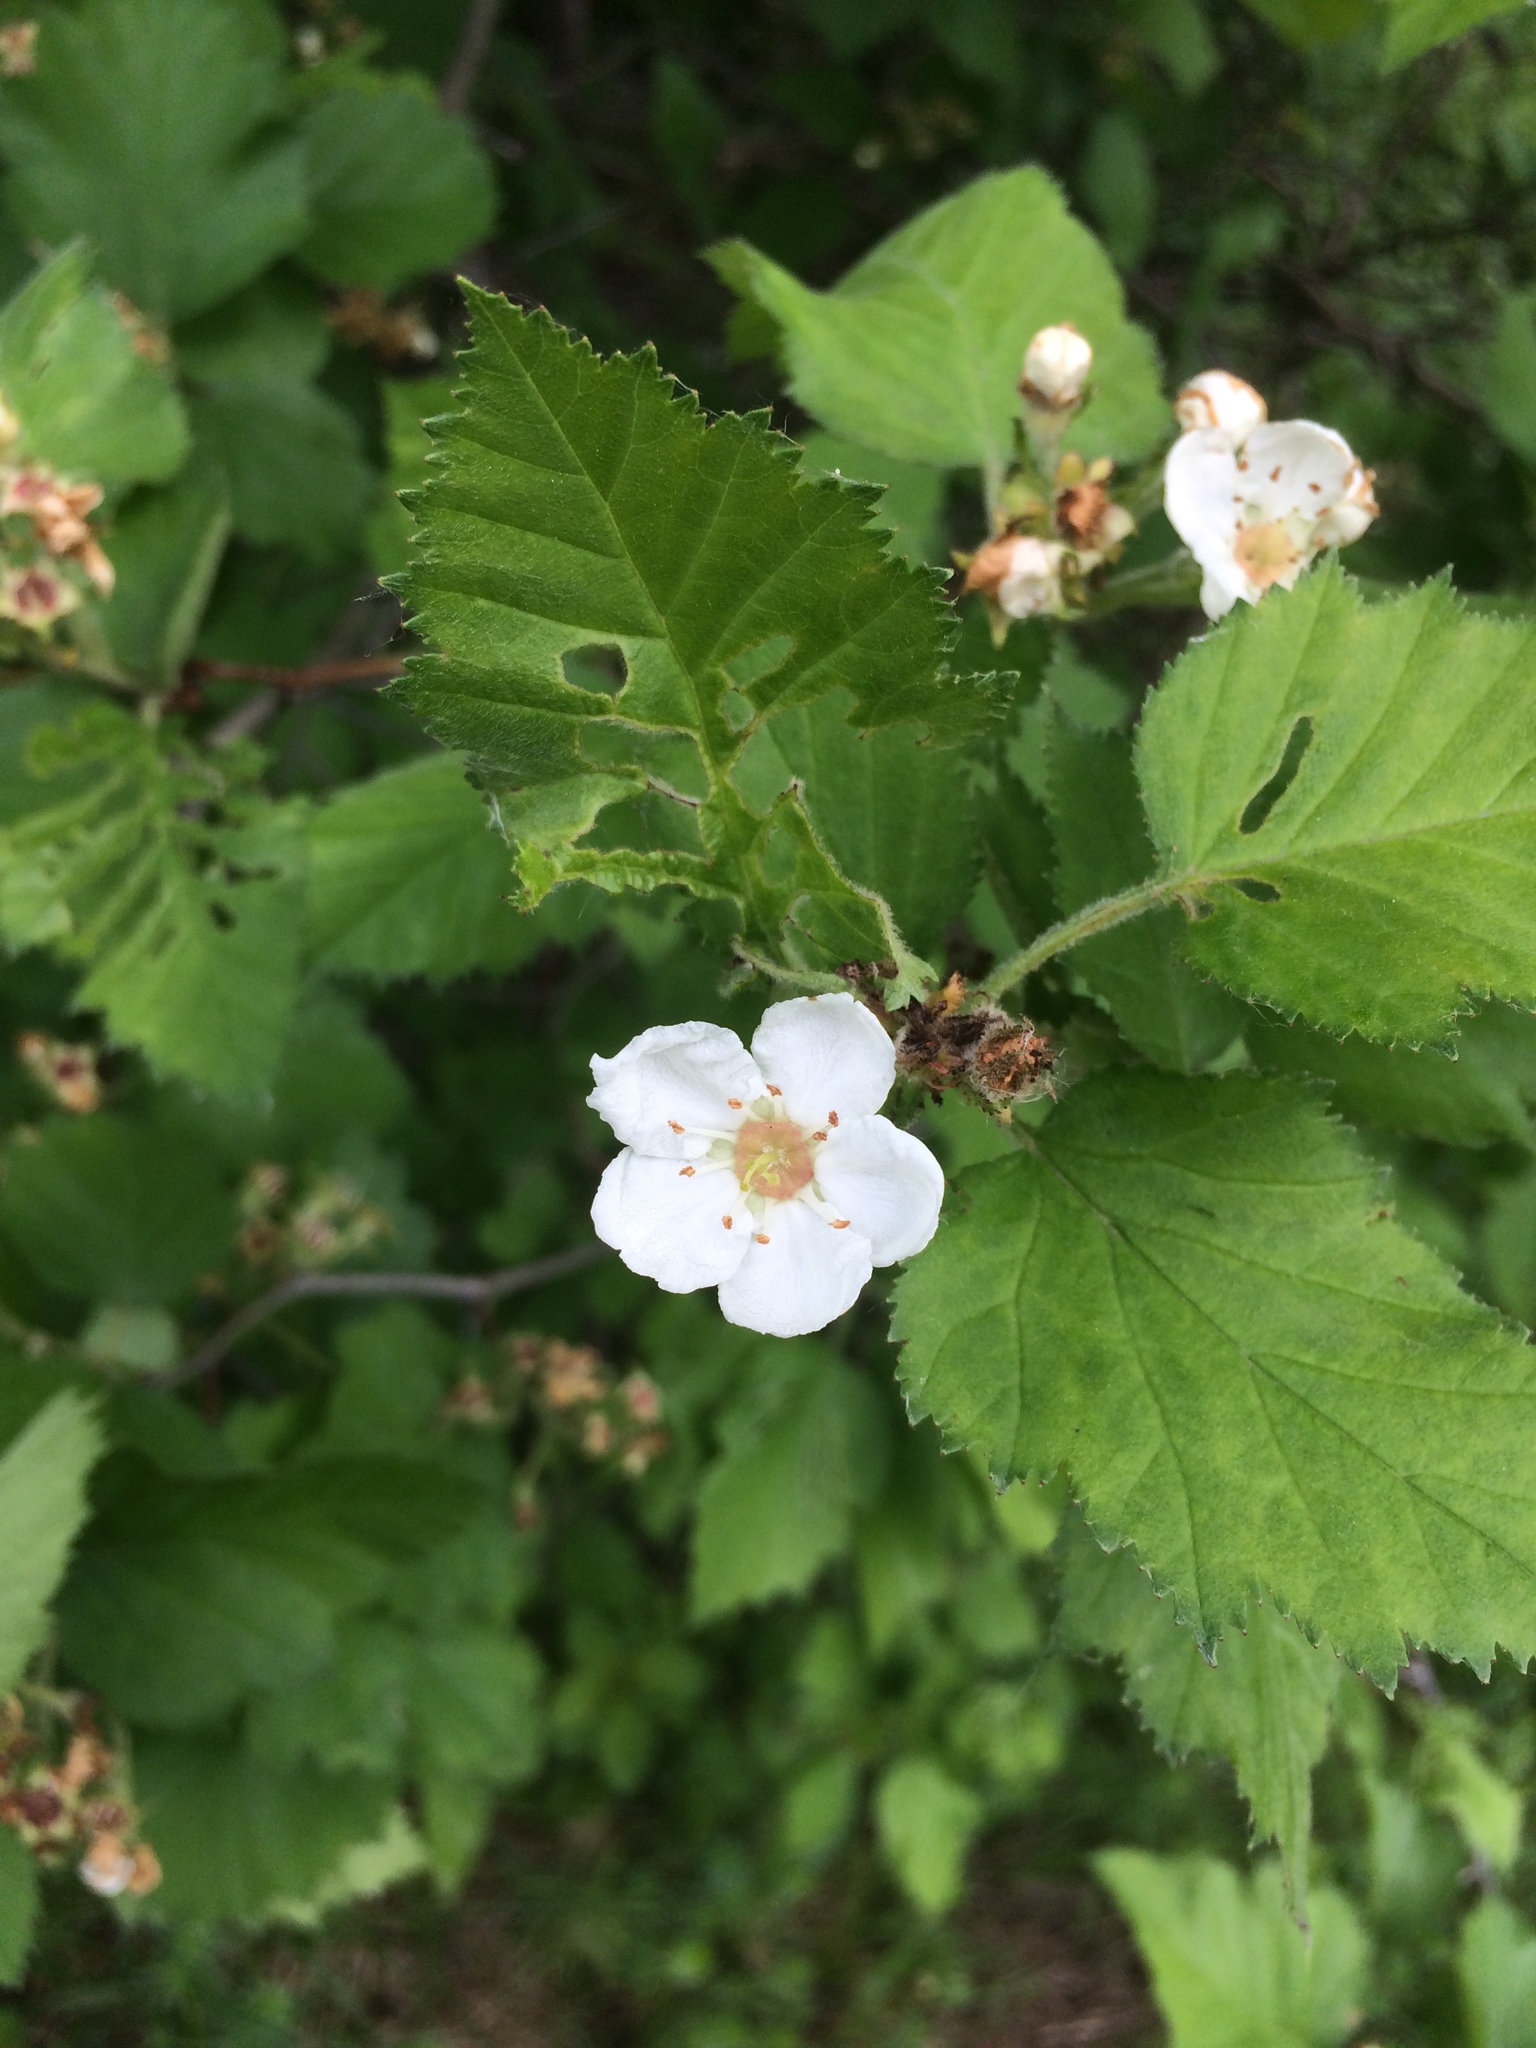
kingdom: Plantae
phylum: Tracheophyta
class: Magnoliopsida
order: Rosales
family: Rosaceae
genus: Crataegus
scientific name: Crataegus submollis
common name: Hairy cockspurthorn
